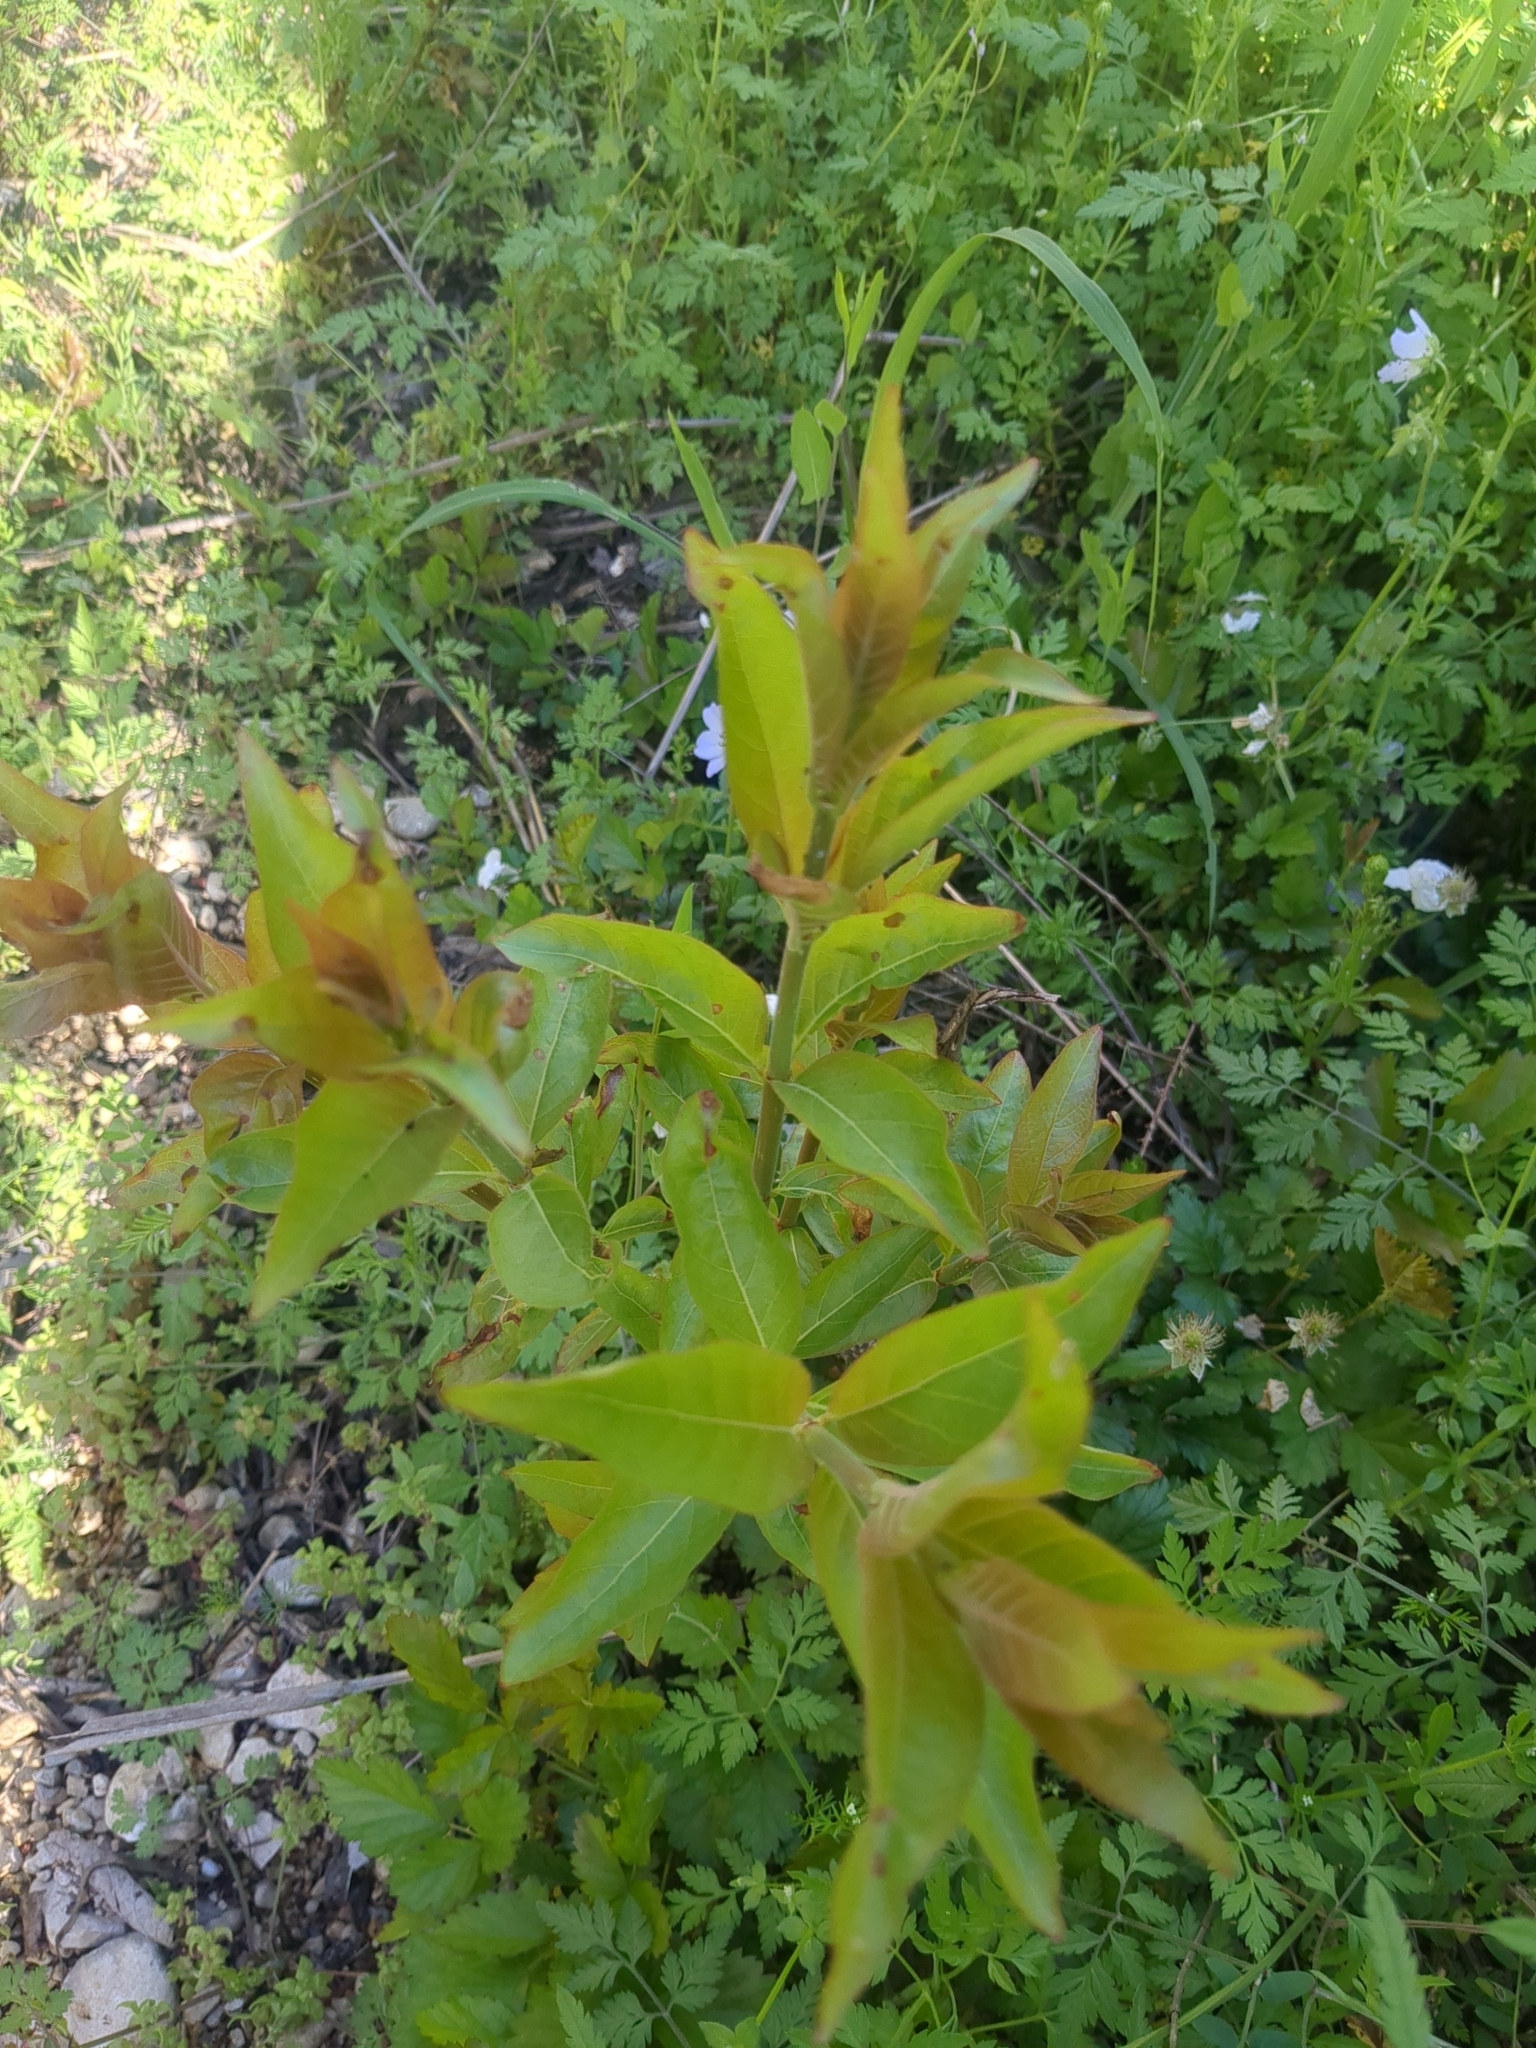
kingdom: Plantae
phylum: Tracheophyta
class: Magnoliopsida
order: Gentianales
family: Rubiaceae
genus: Cephalanthus
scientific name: Cephalanthus occidentalis
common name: Button-willow
